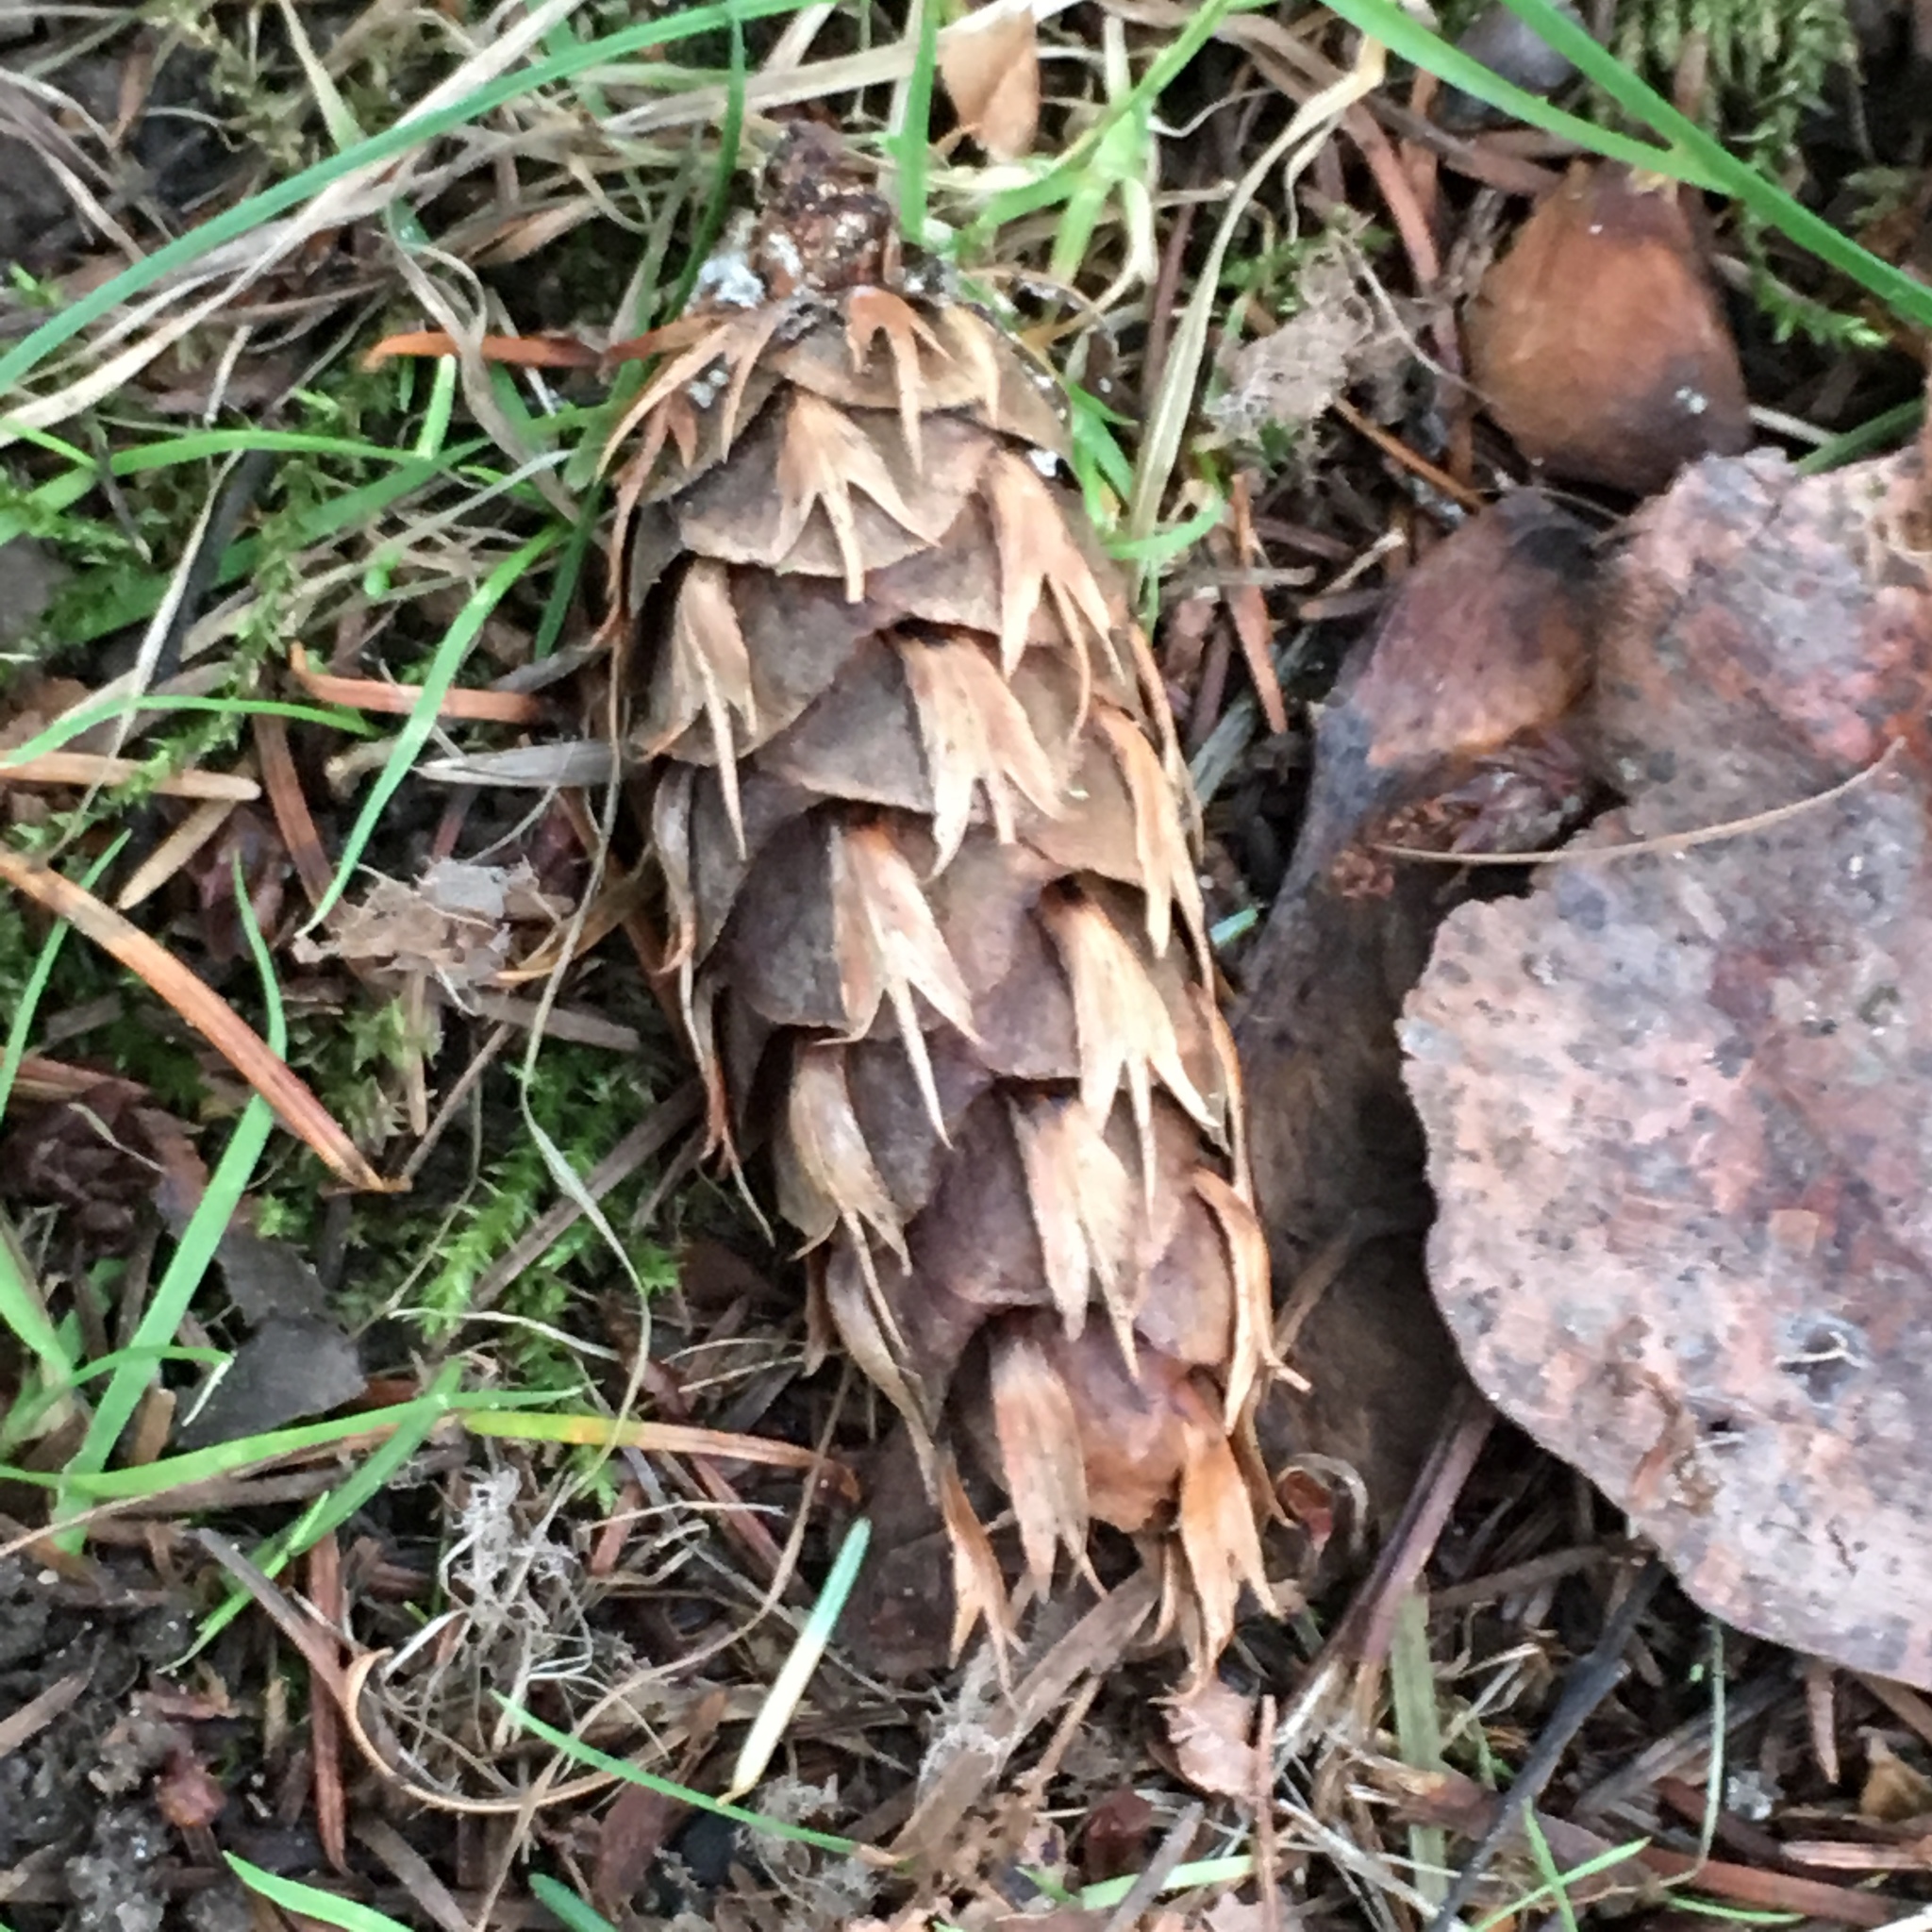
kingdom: Plantae
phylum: Tracheophyta
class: Pinopsida
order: Pinales
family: Pinaceae
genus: Pseudotsuga
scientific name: Pseudotsuga menziesii
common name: Douglas fir
